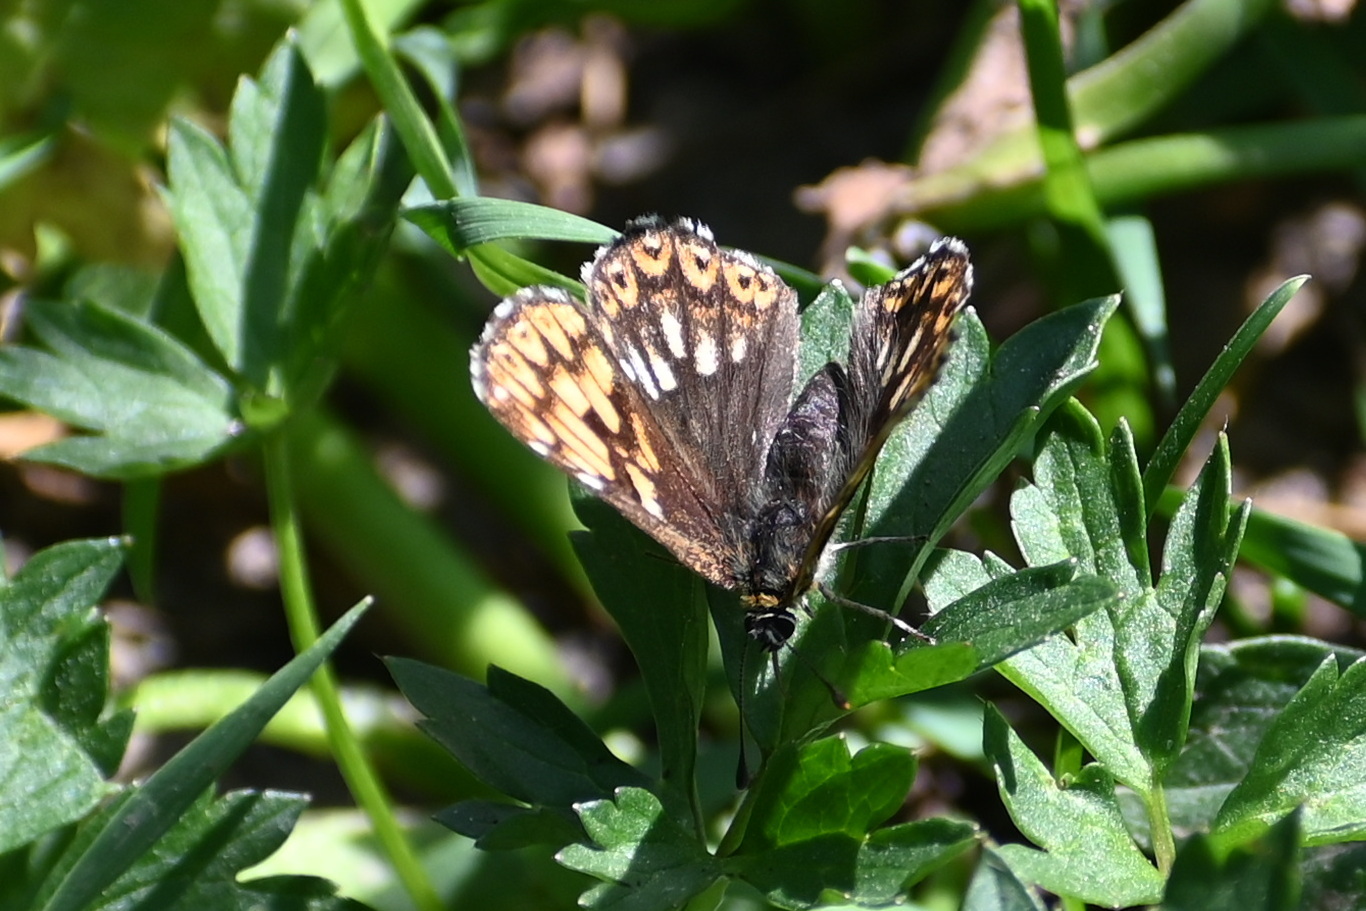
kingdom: Animalia
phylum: Arthropoda
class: Insecta
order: Lepidoptera
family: Riodinidae
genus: Hamearis
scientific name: Hamearis lucina
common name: Duke of burgundy fritillary
